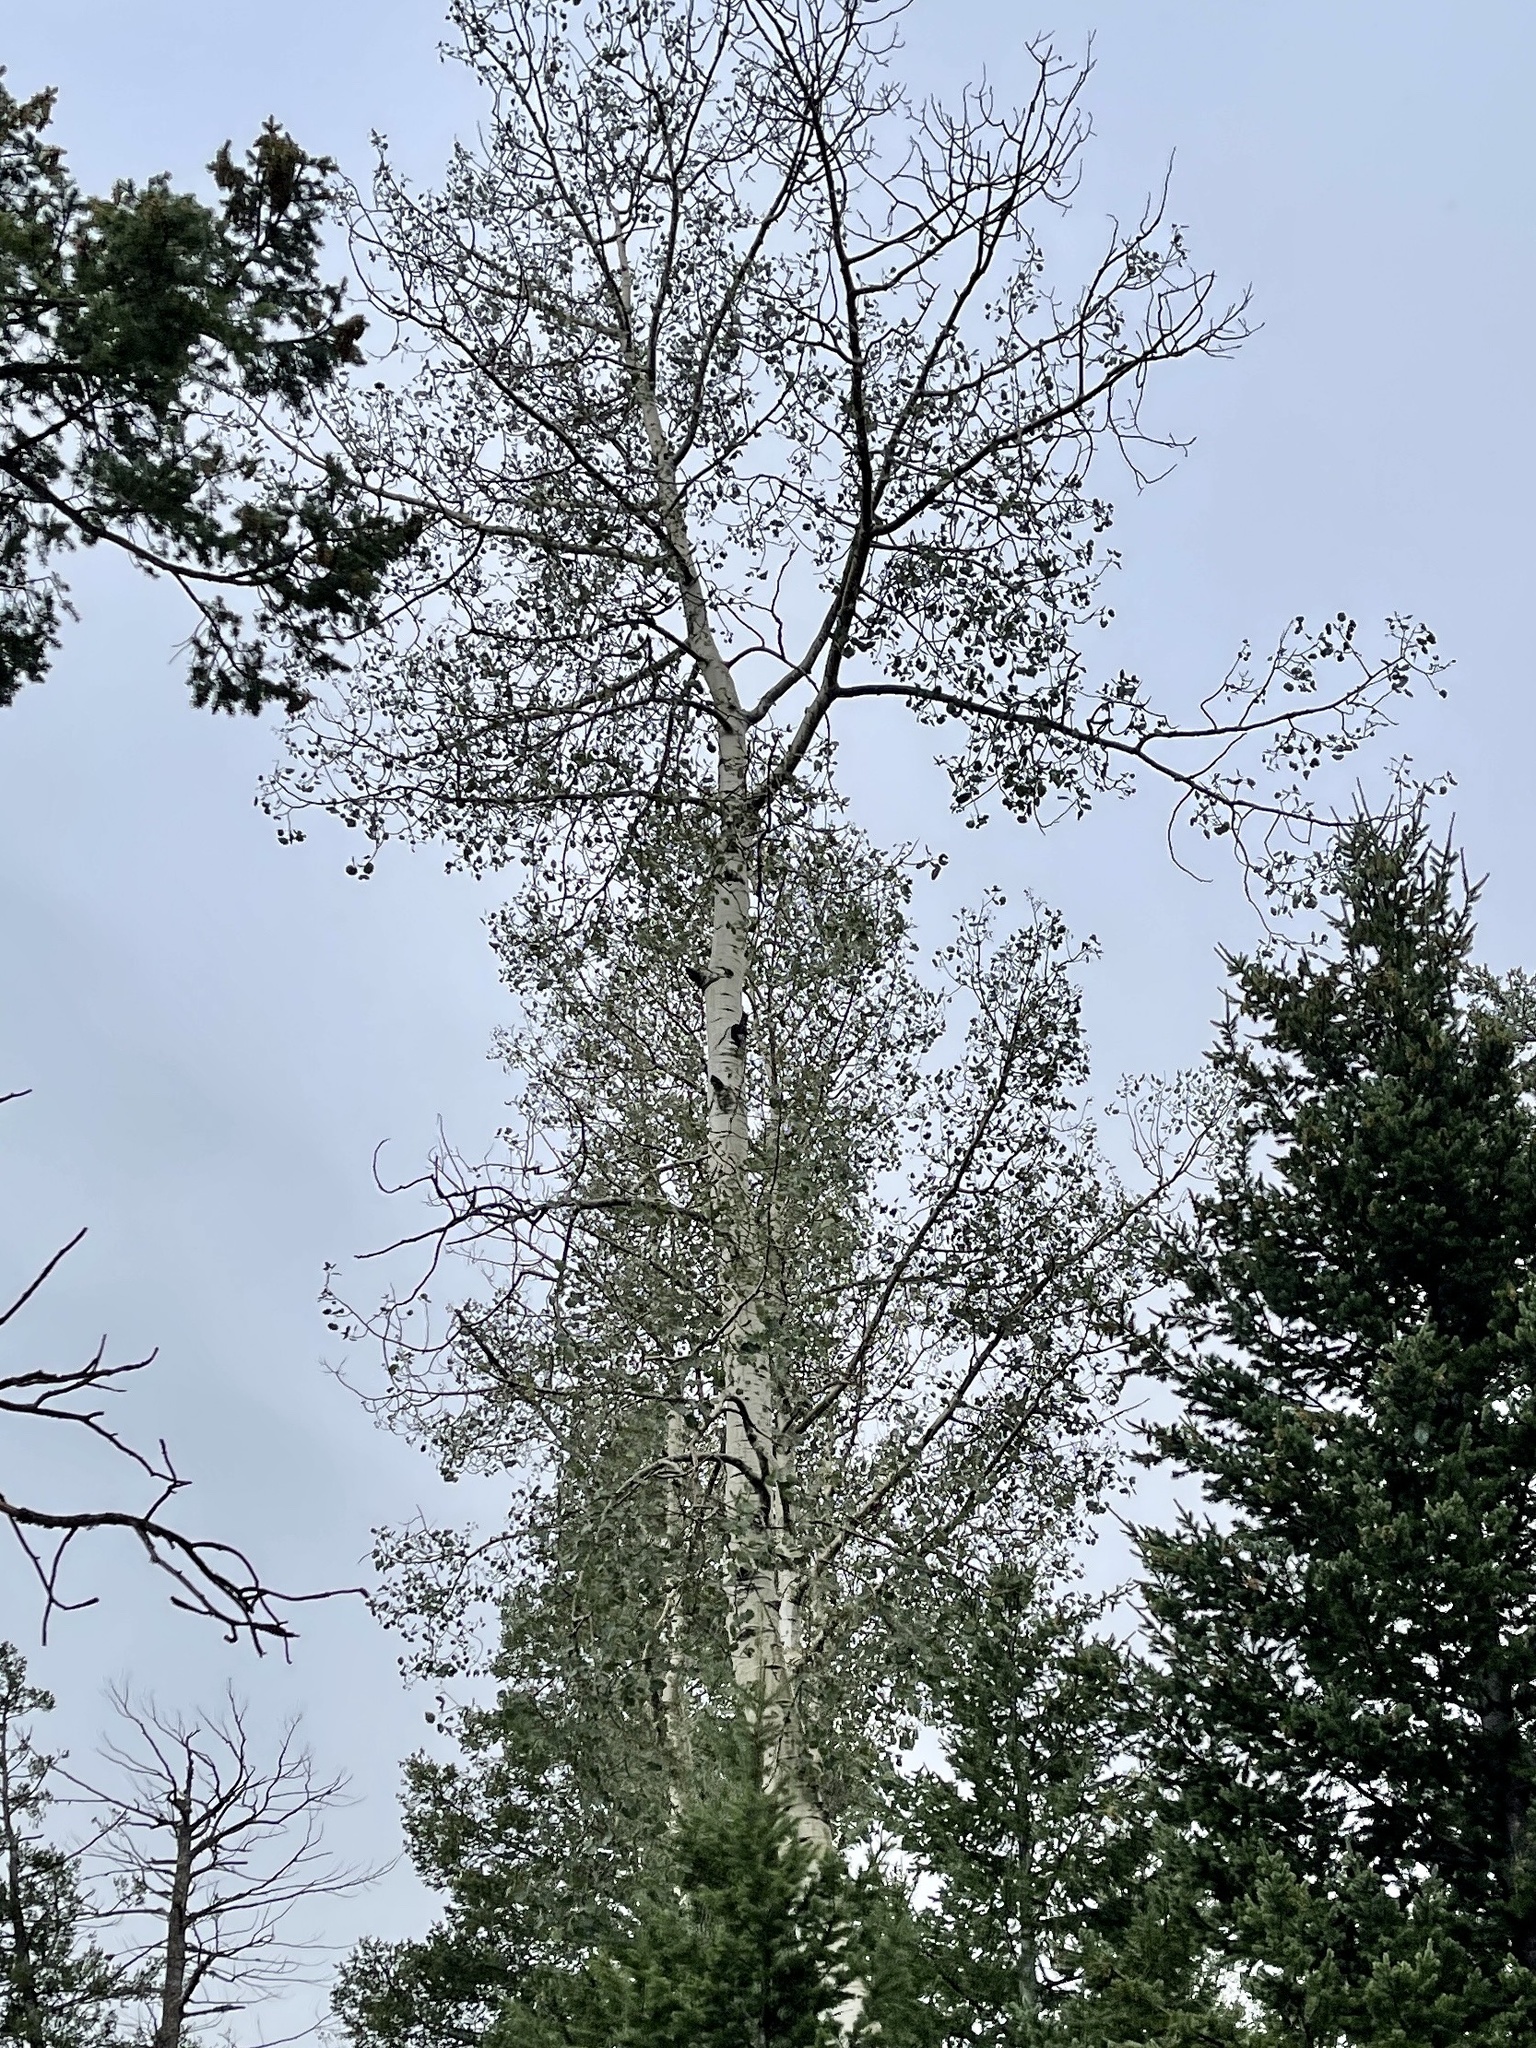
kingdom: Plantae
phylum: Tracheophyta
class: Magnoliopsida
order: Malpighiales
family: Salicaceae
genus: Populus
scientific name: Populus tremuloides
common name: Quaking aspen
